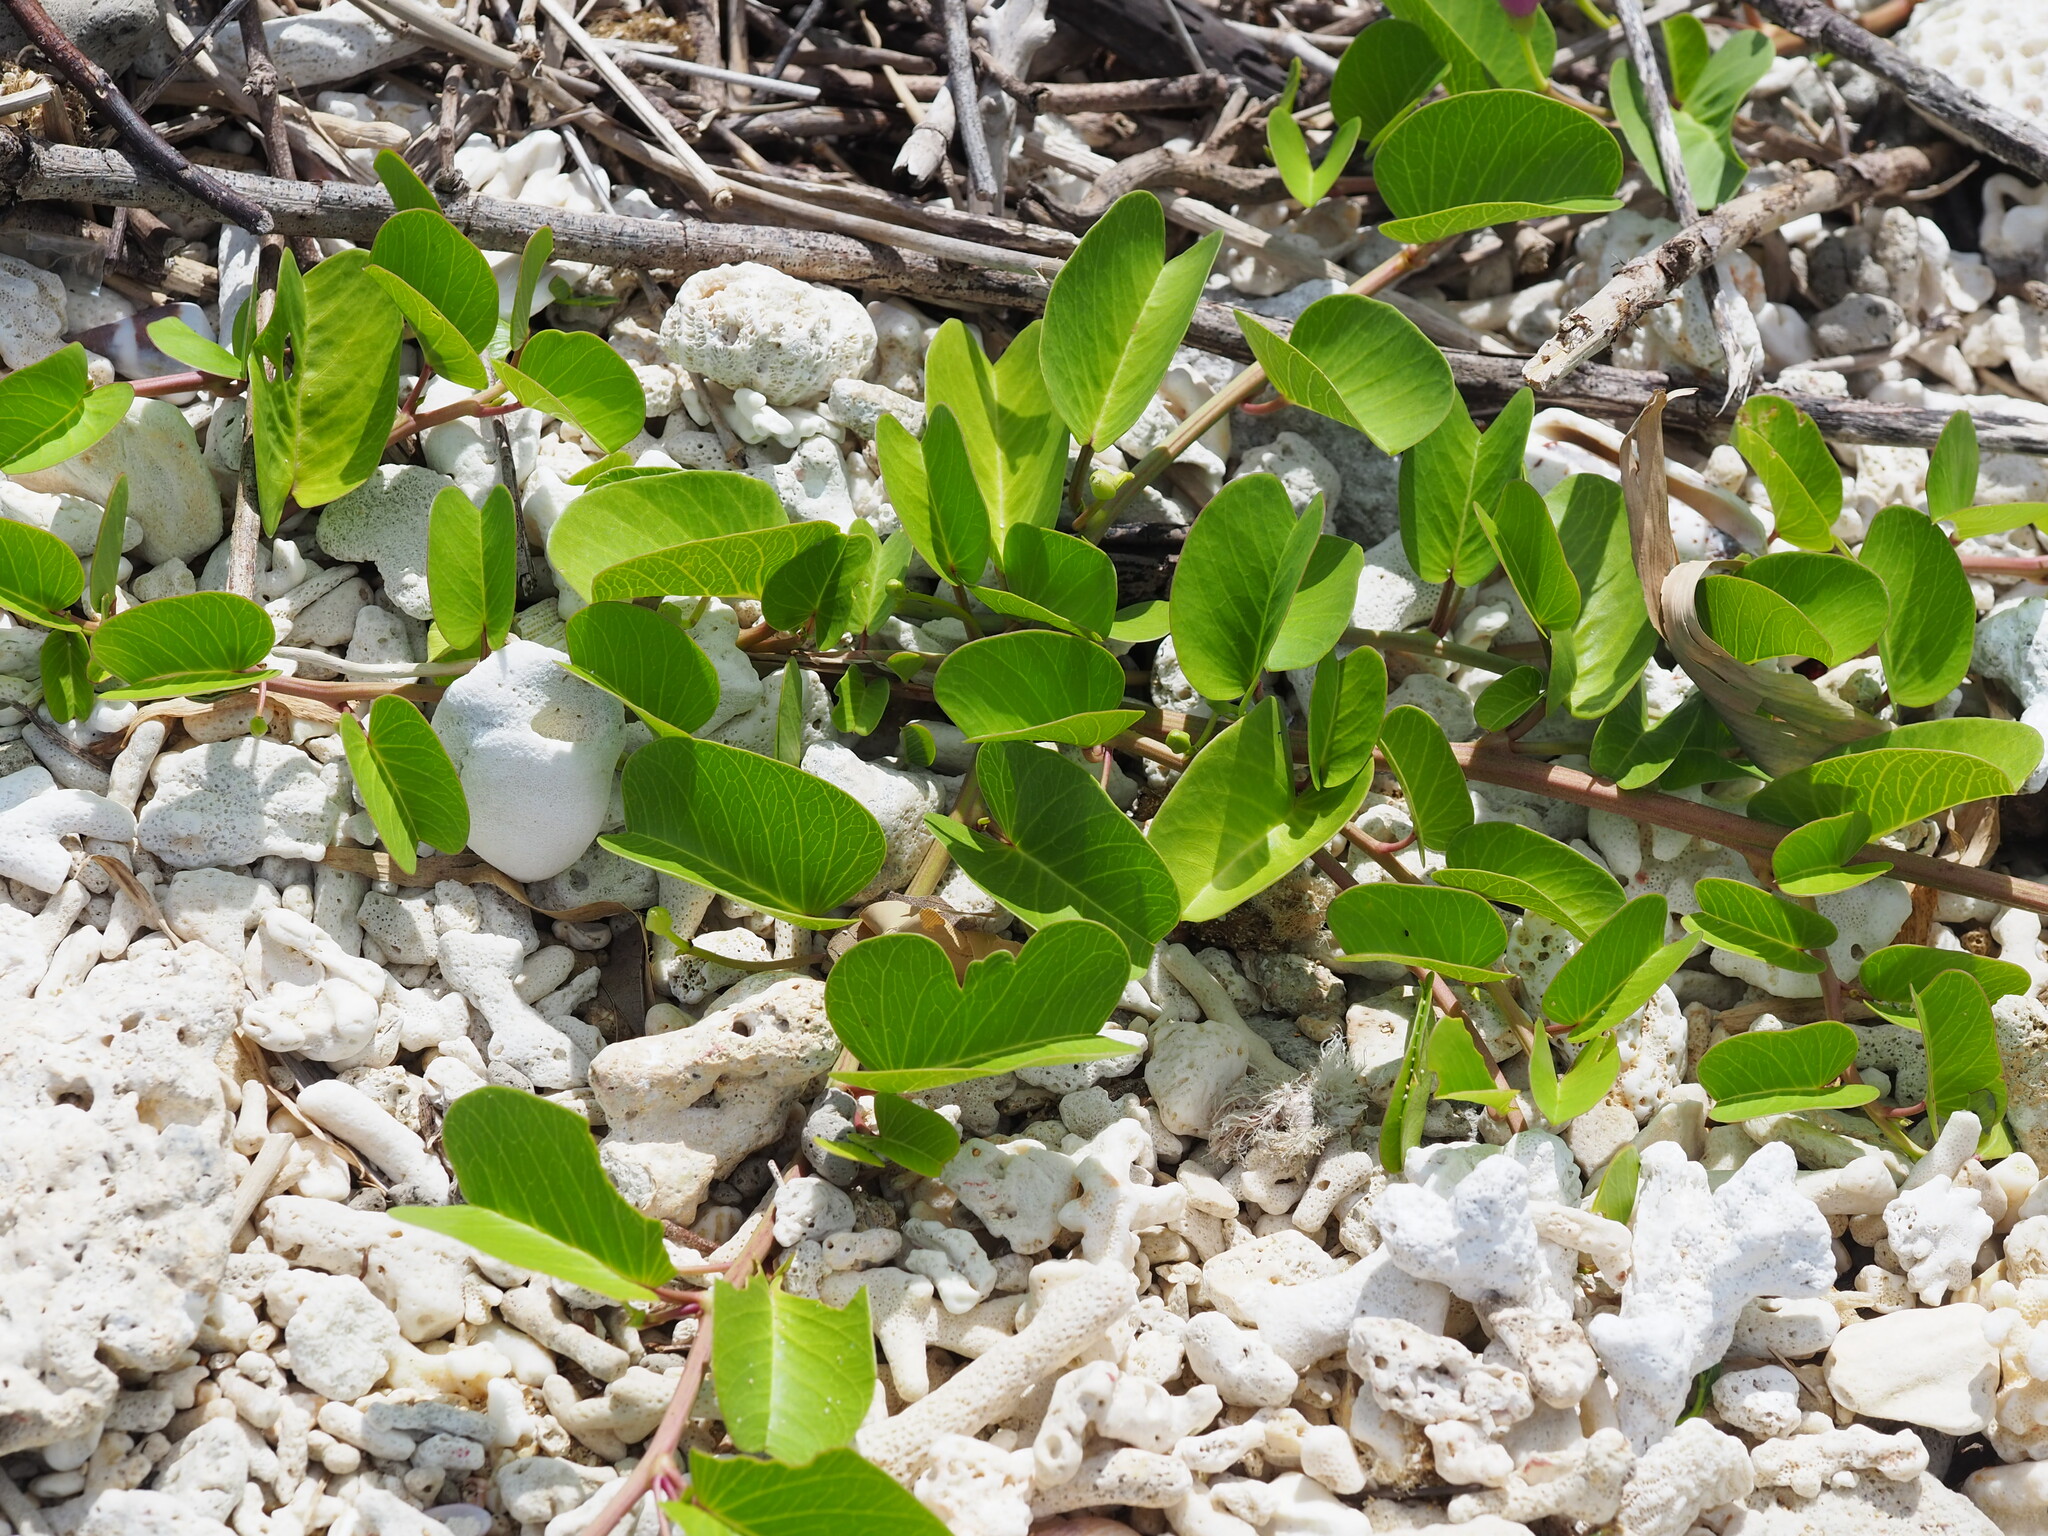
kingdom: Plantae
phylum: Tracheophyta
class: Magnoliopsida
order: Solanales
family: Convolvulaceae
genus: Ipomoea
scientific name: Ipomoea pes-caprae
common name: Beach morning glory
